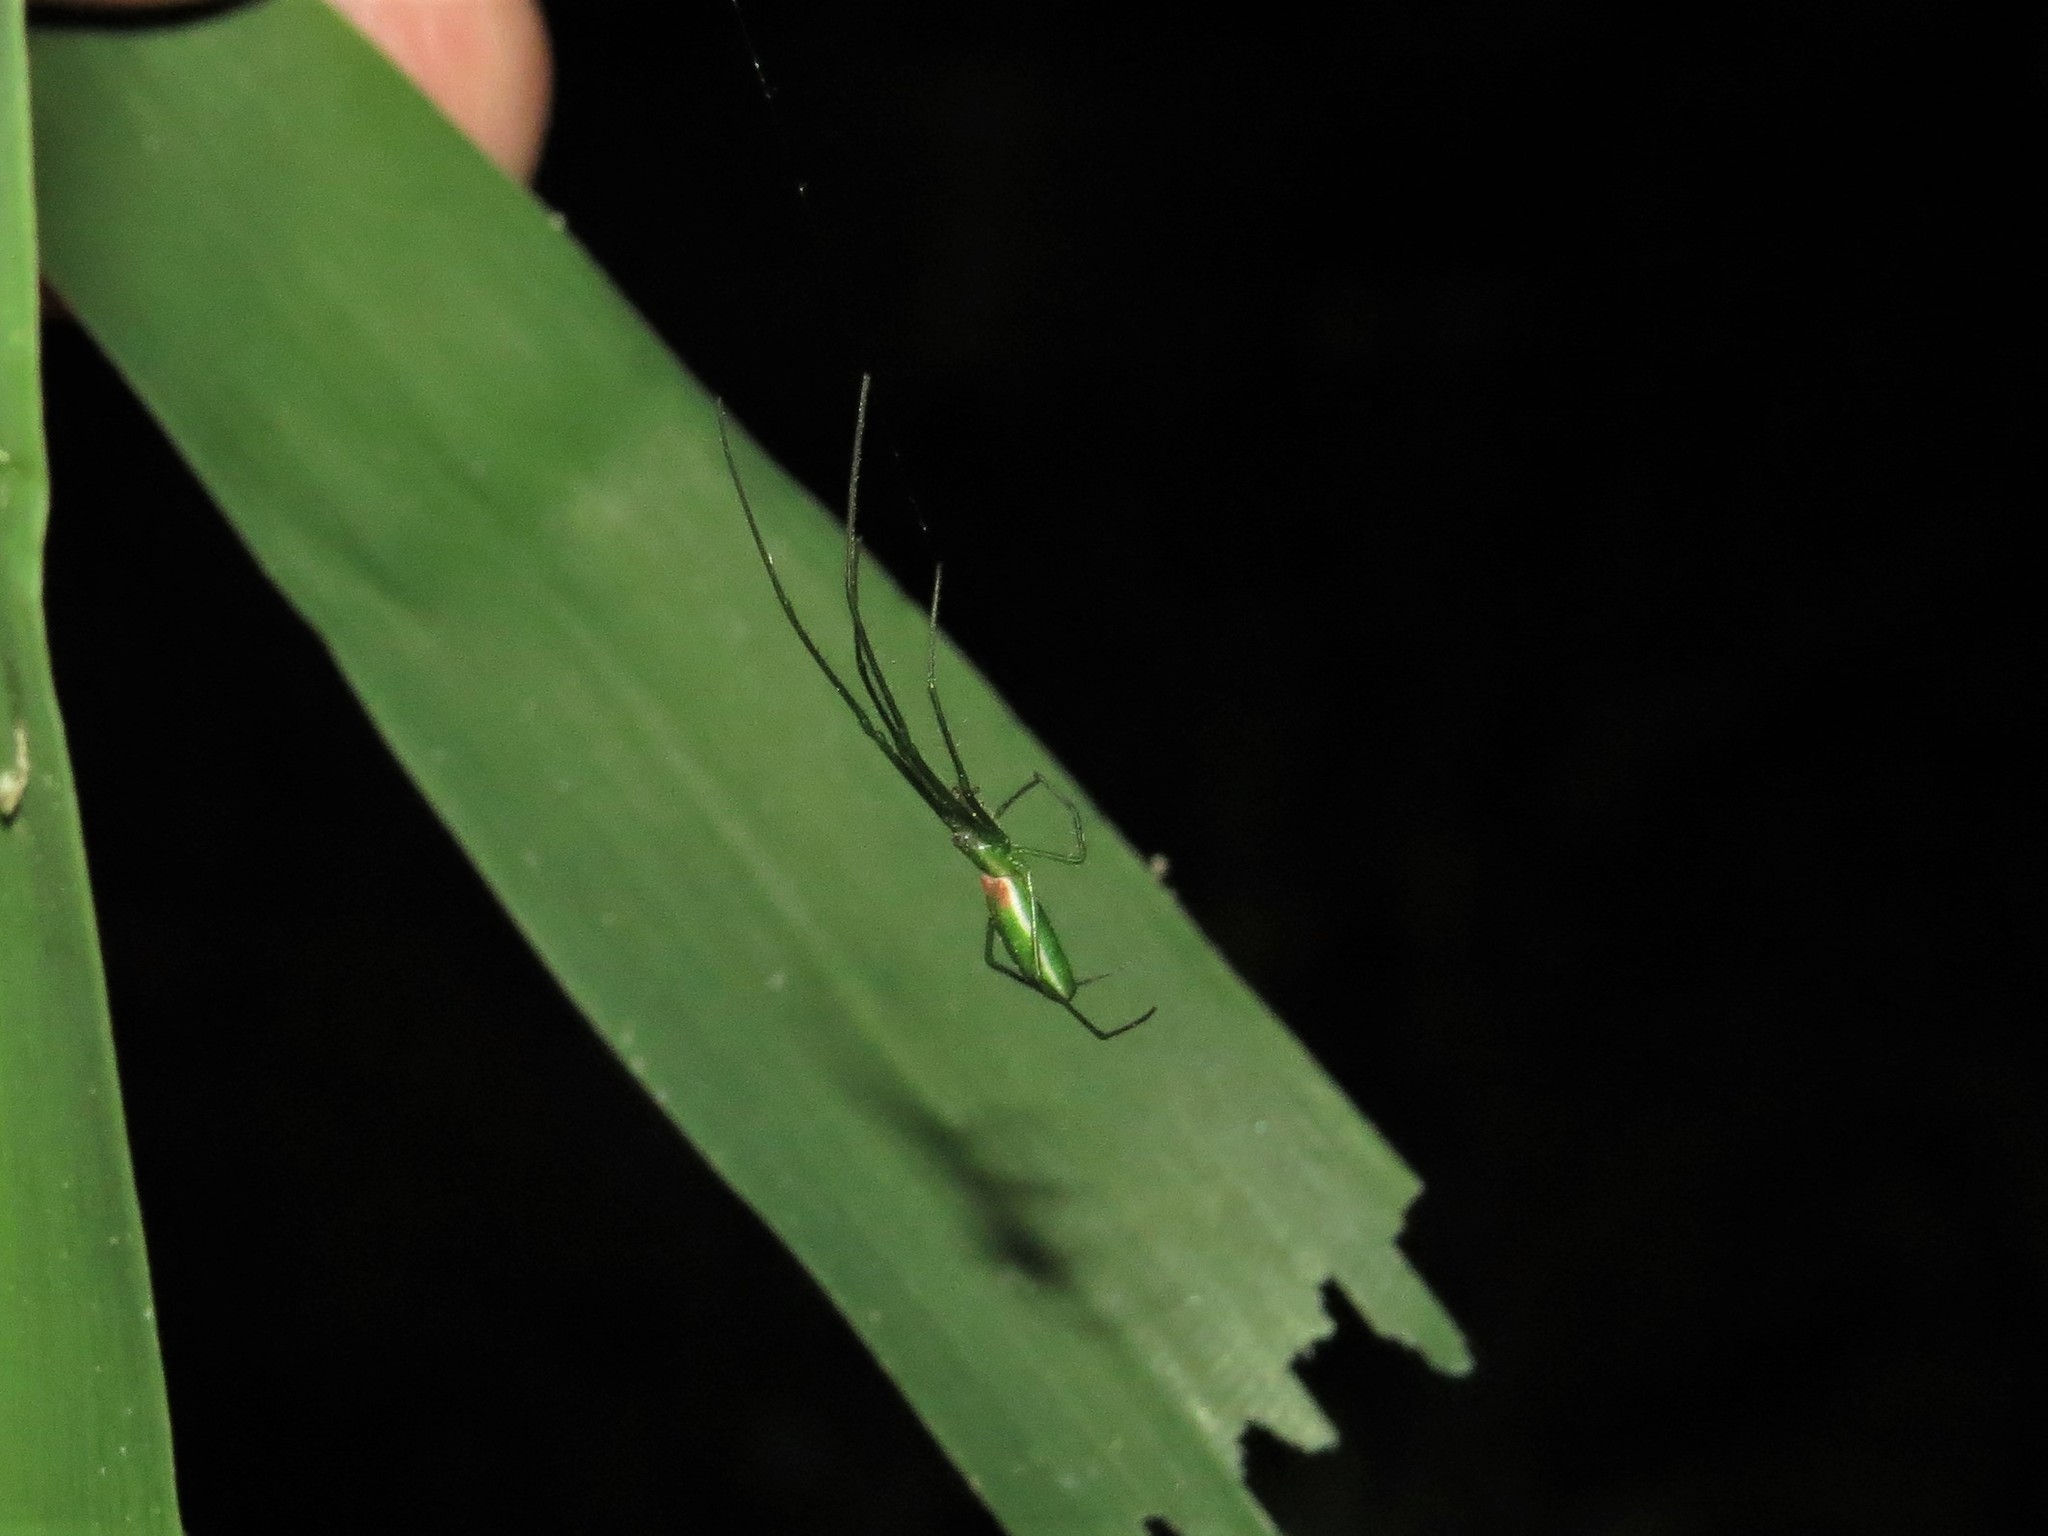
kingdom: Animalia
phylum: Arthropoda
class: Arachnida
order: Araneae
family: Tetragnathidae
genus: Tetragnatha
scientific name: Tetragnatha viridis
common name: Green long-jawed spider
